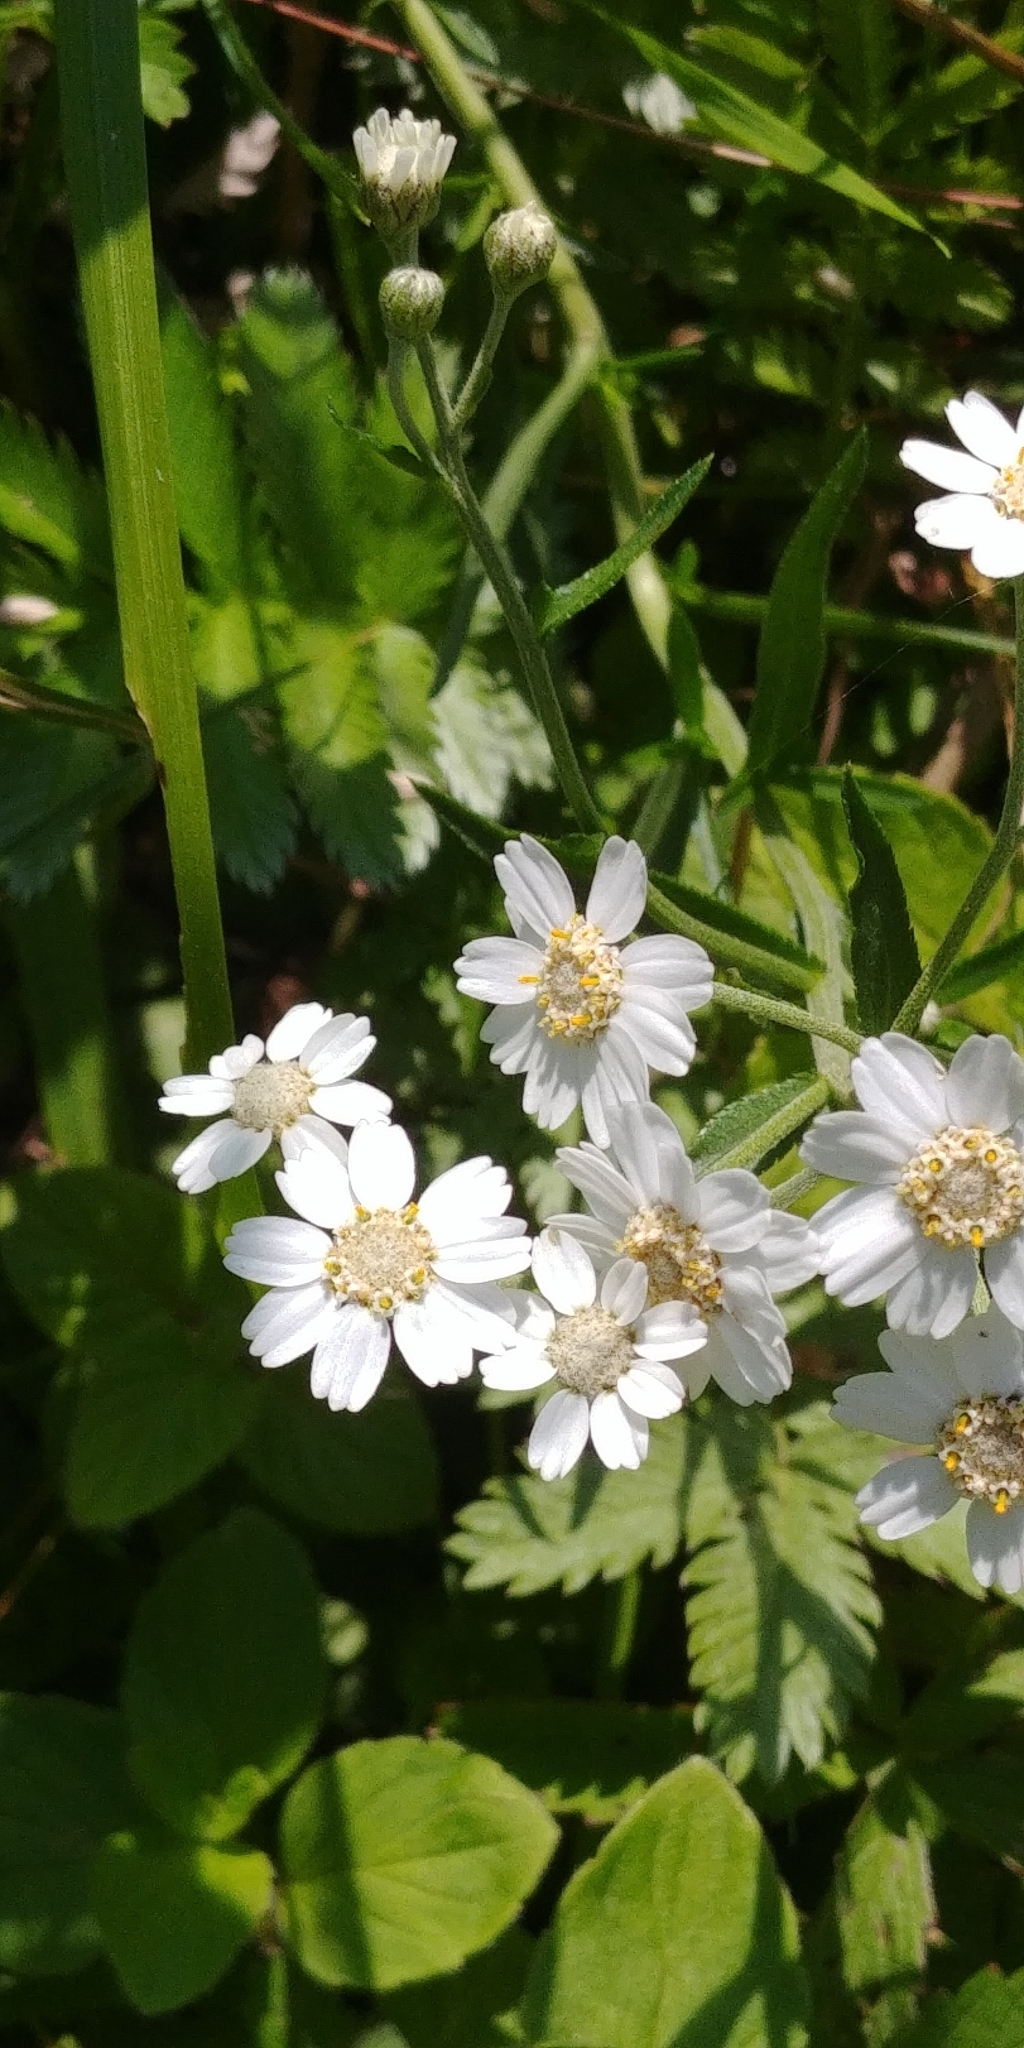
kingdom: Plantae
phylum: Tracheophyta
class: Magnoliopsida
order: Asterales
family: Asteraceae
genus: Achillea
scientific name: Achillea ptarmica
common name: Sneezeweed
